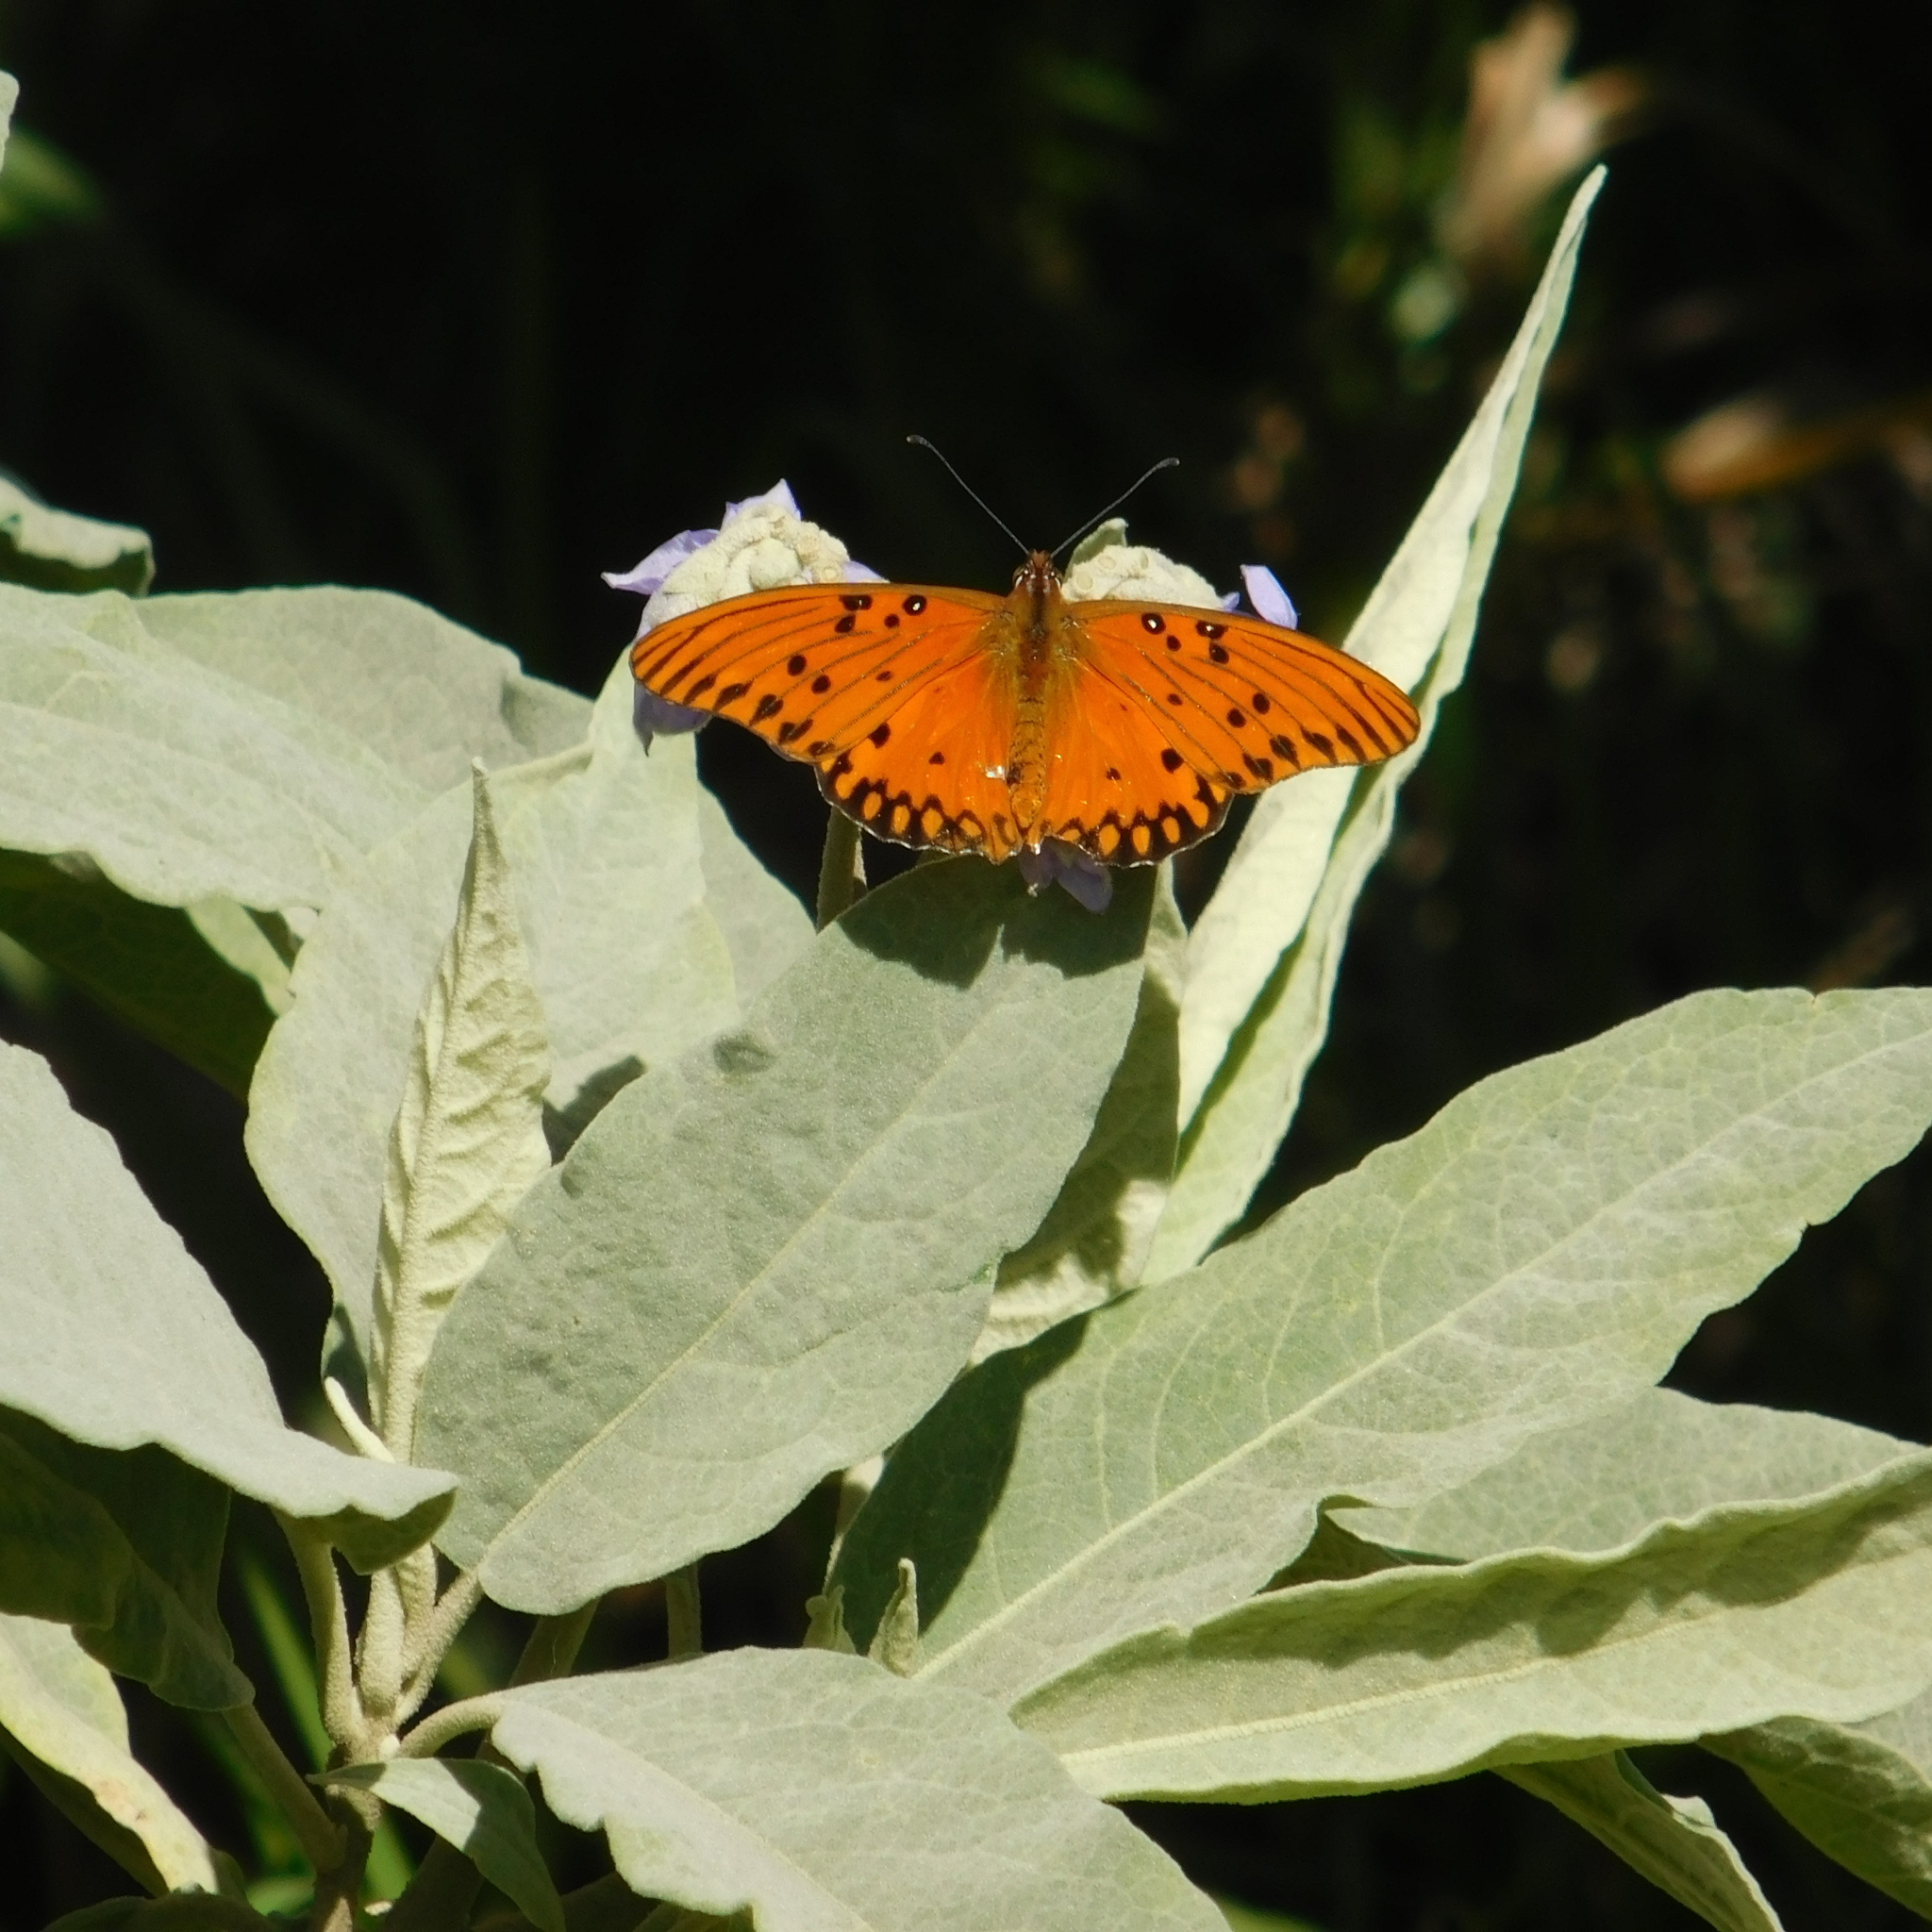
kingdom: Animalia
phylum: Arthropoda
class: Insecta
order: Lepidoptera
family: Nymphalidae
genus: Dione
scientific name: Dione vanillae
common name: Gulf fritillary
